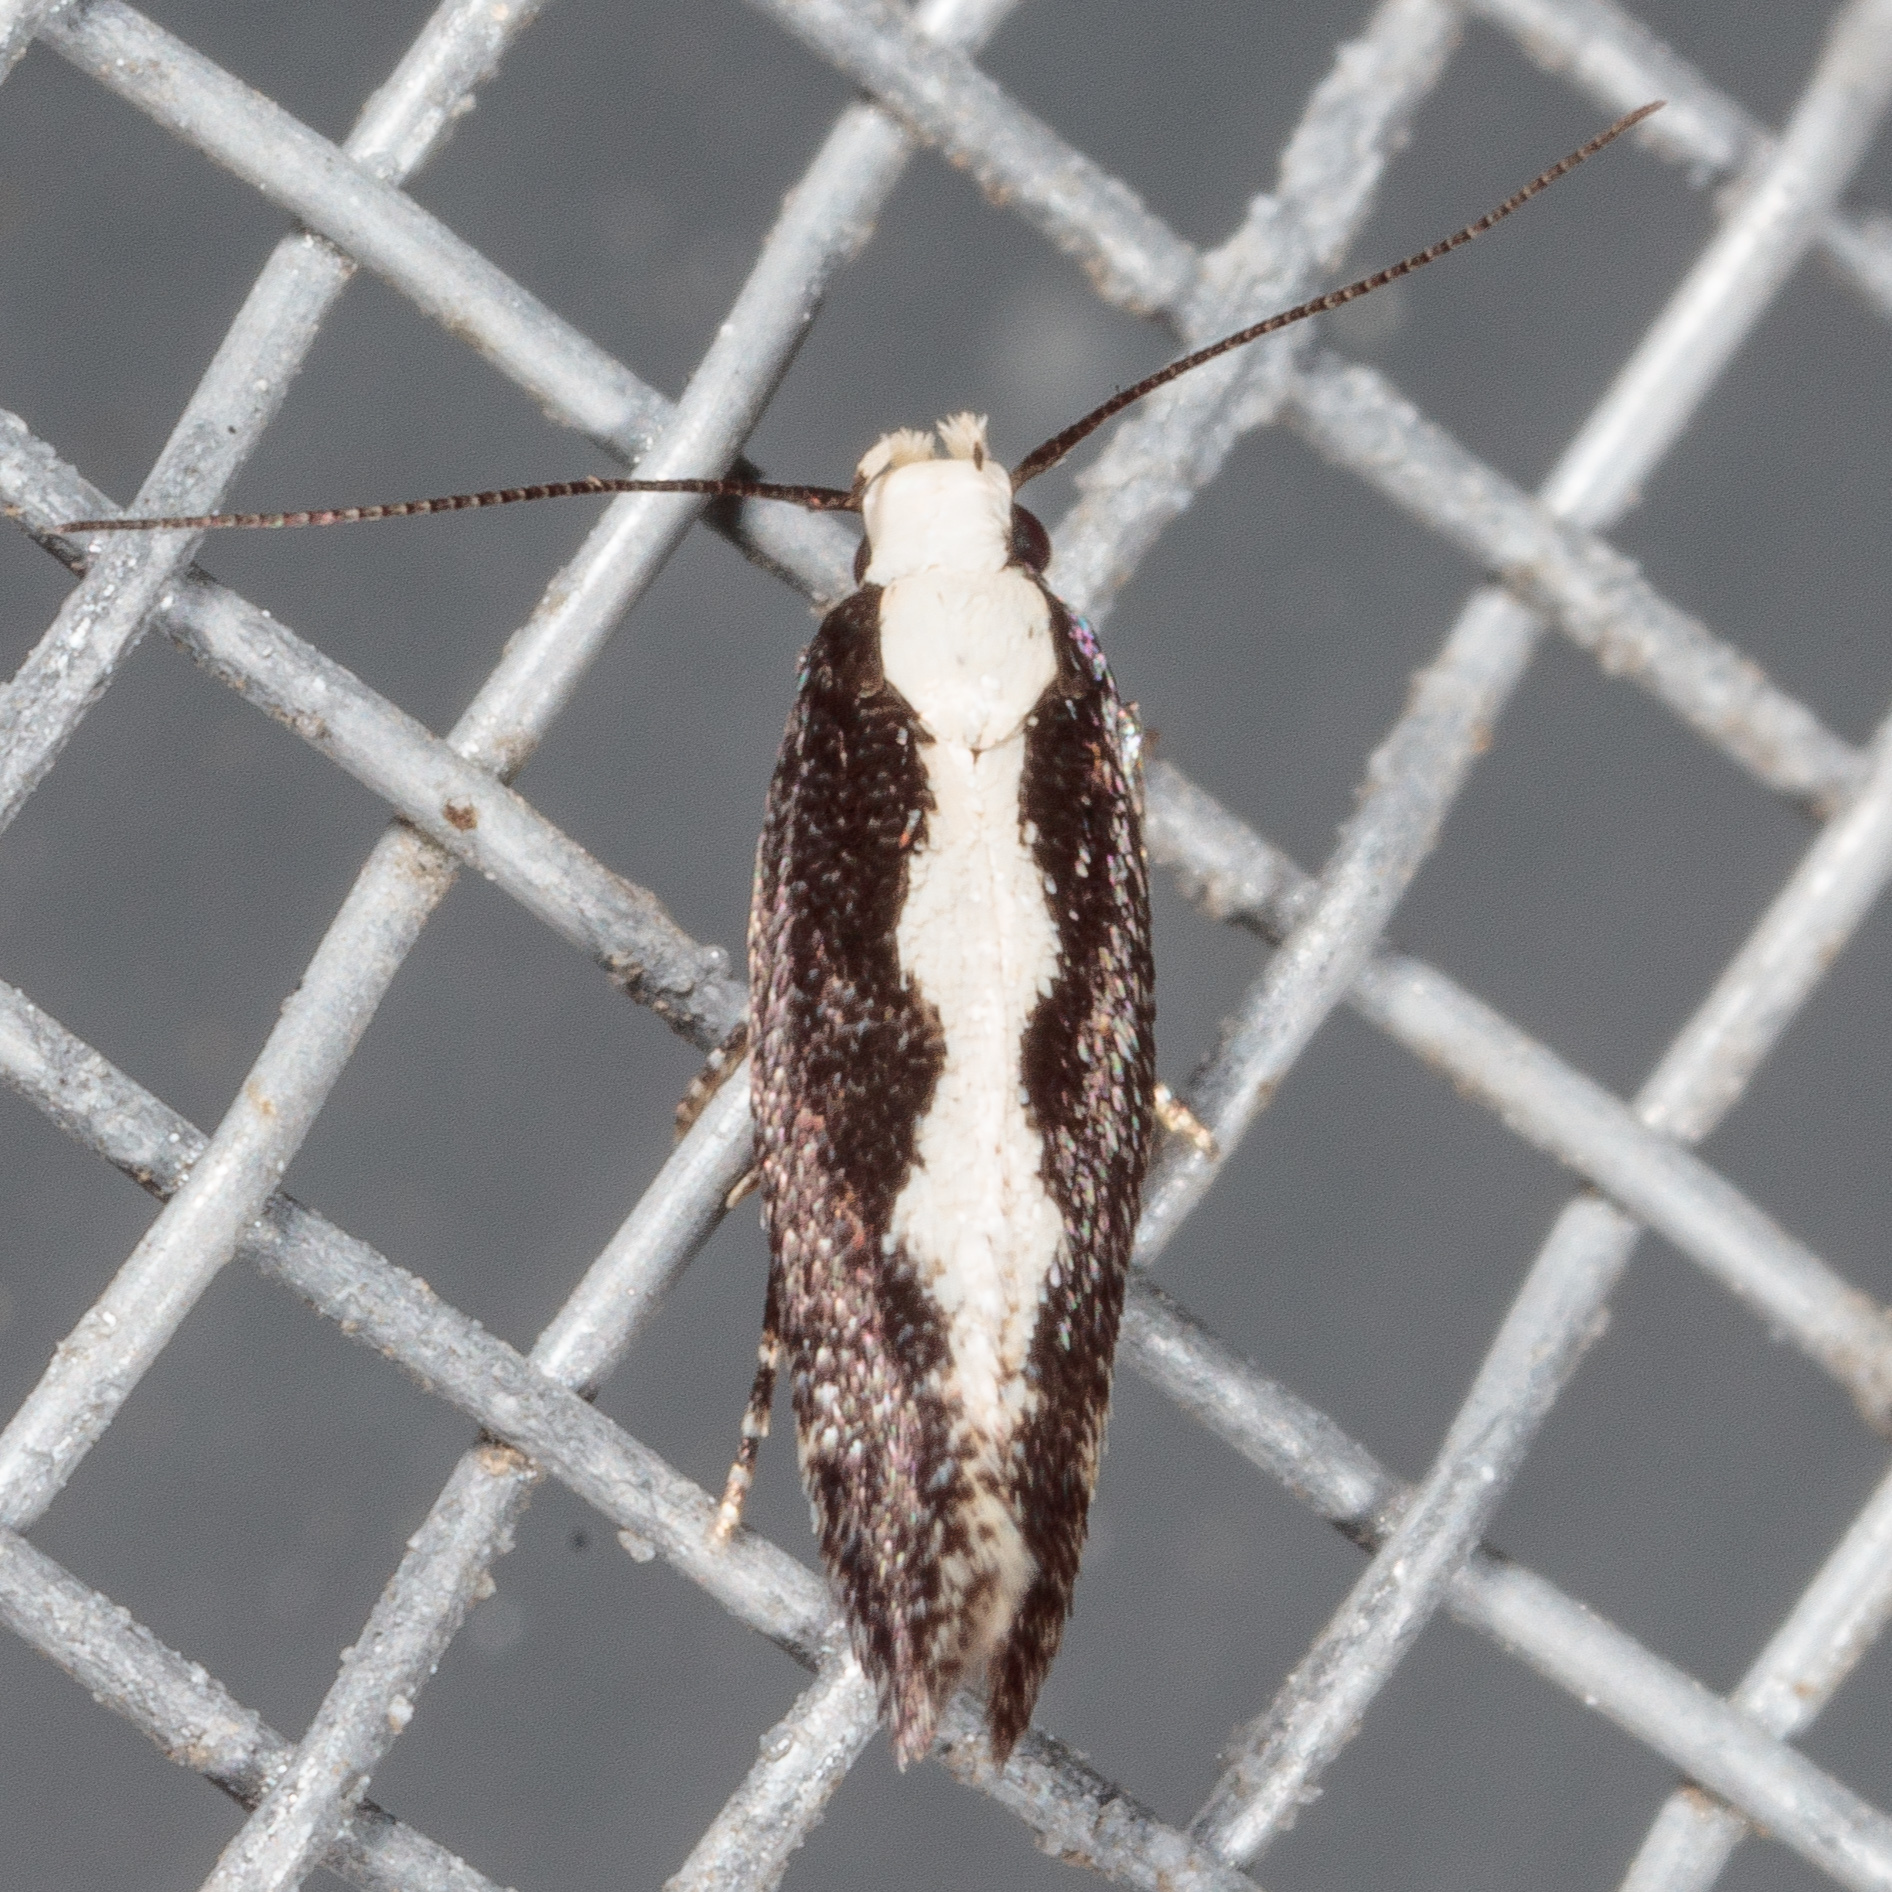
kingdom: Animalia
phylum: Arthropoda
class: Insecta
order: Lepidoptera
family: Gelechiidae
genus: Agnippe
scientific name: Agnippe prunifoliella
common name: Skunk twirler
